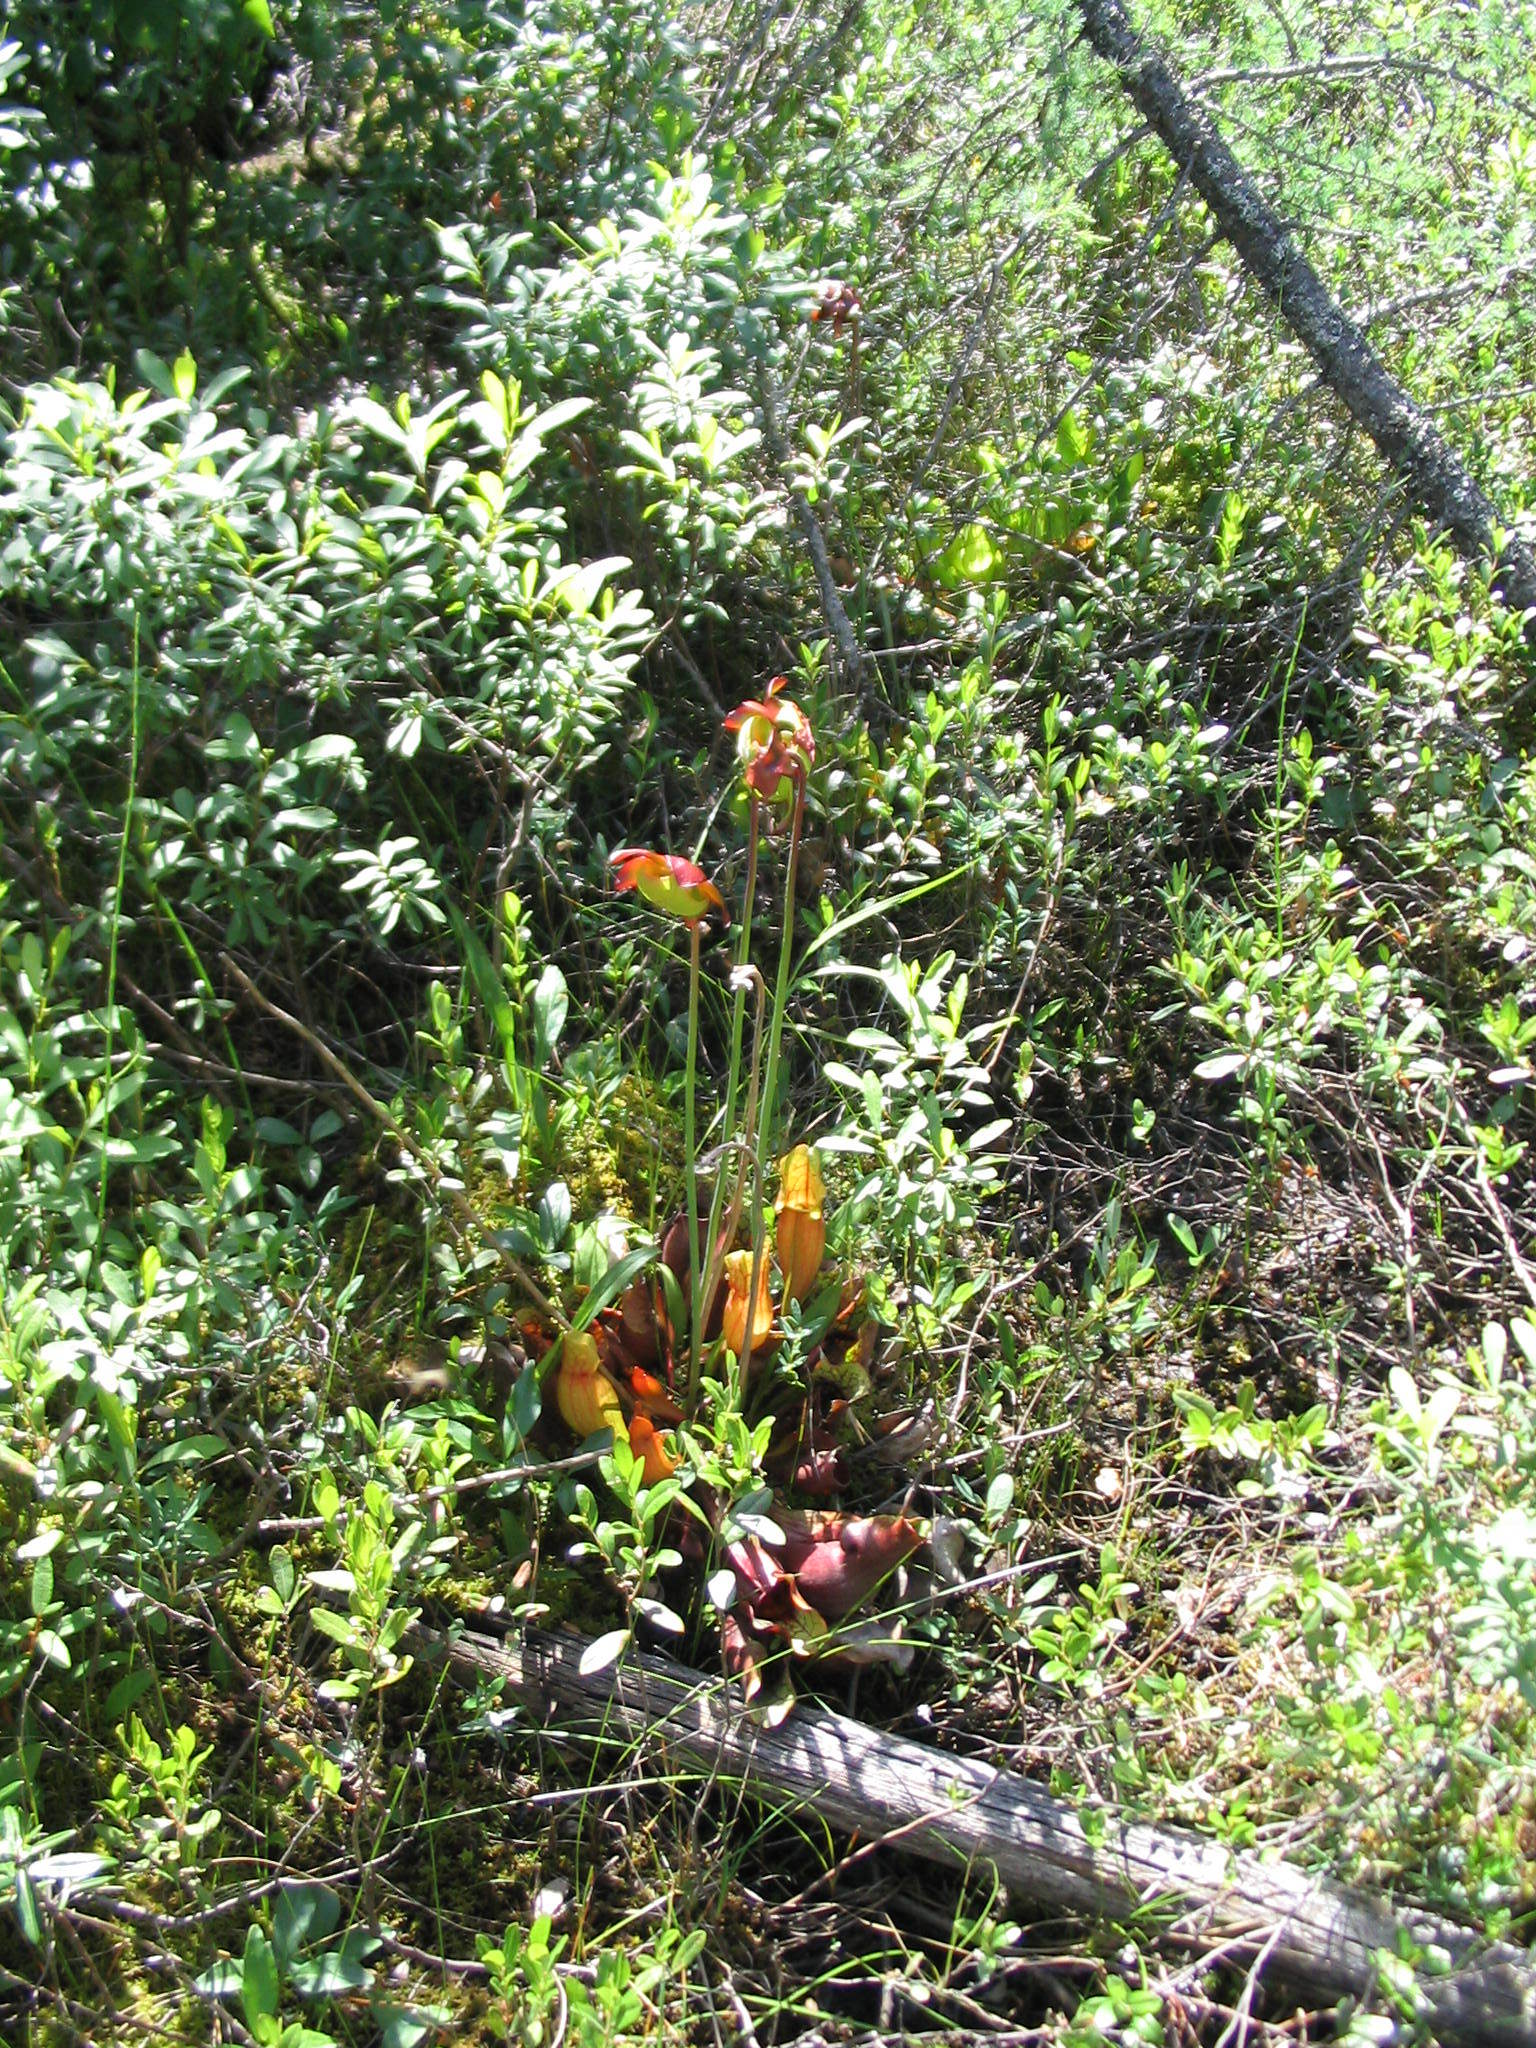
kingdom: Plantae
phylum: Tracheophyta
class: Magnoliopsida
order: Ericales
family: Sarraceniaceae
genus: Sarracenia
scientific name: Sarracenia purpurea
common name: Pitcherplant
